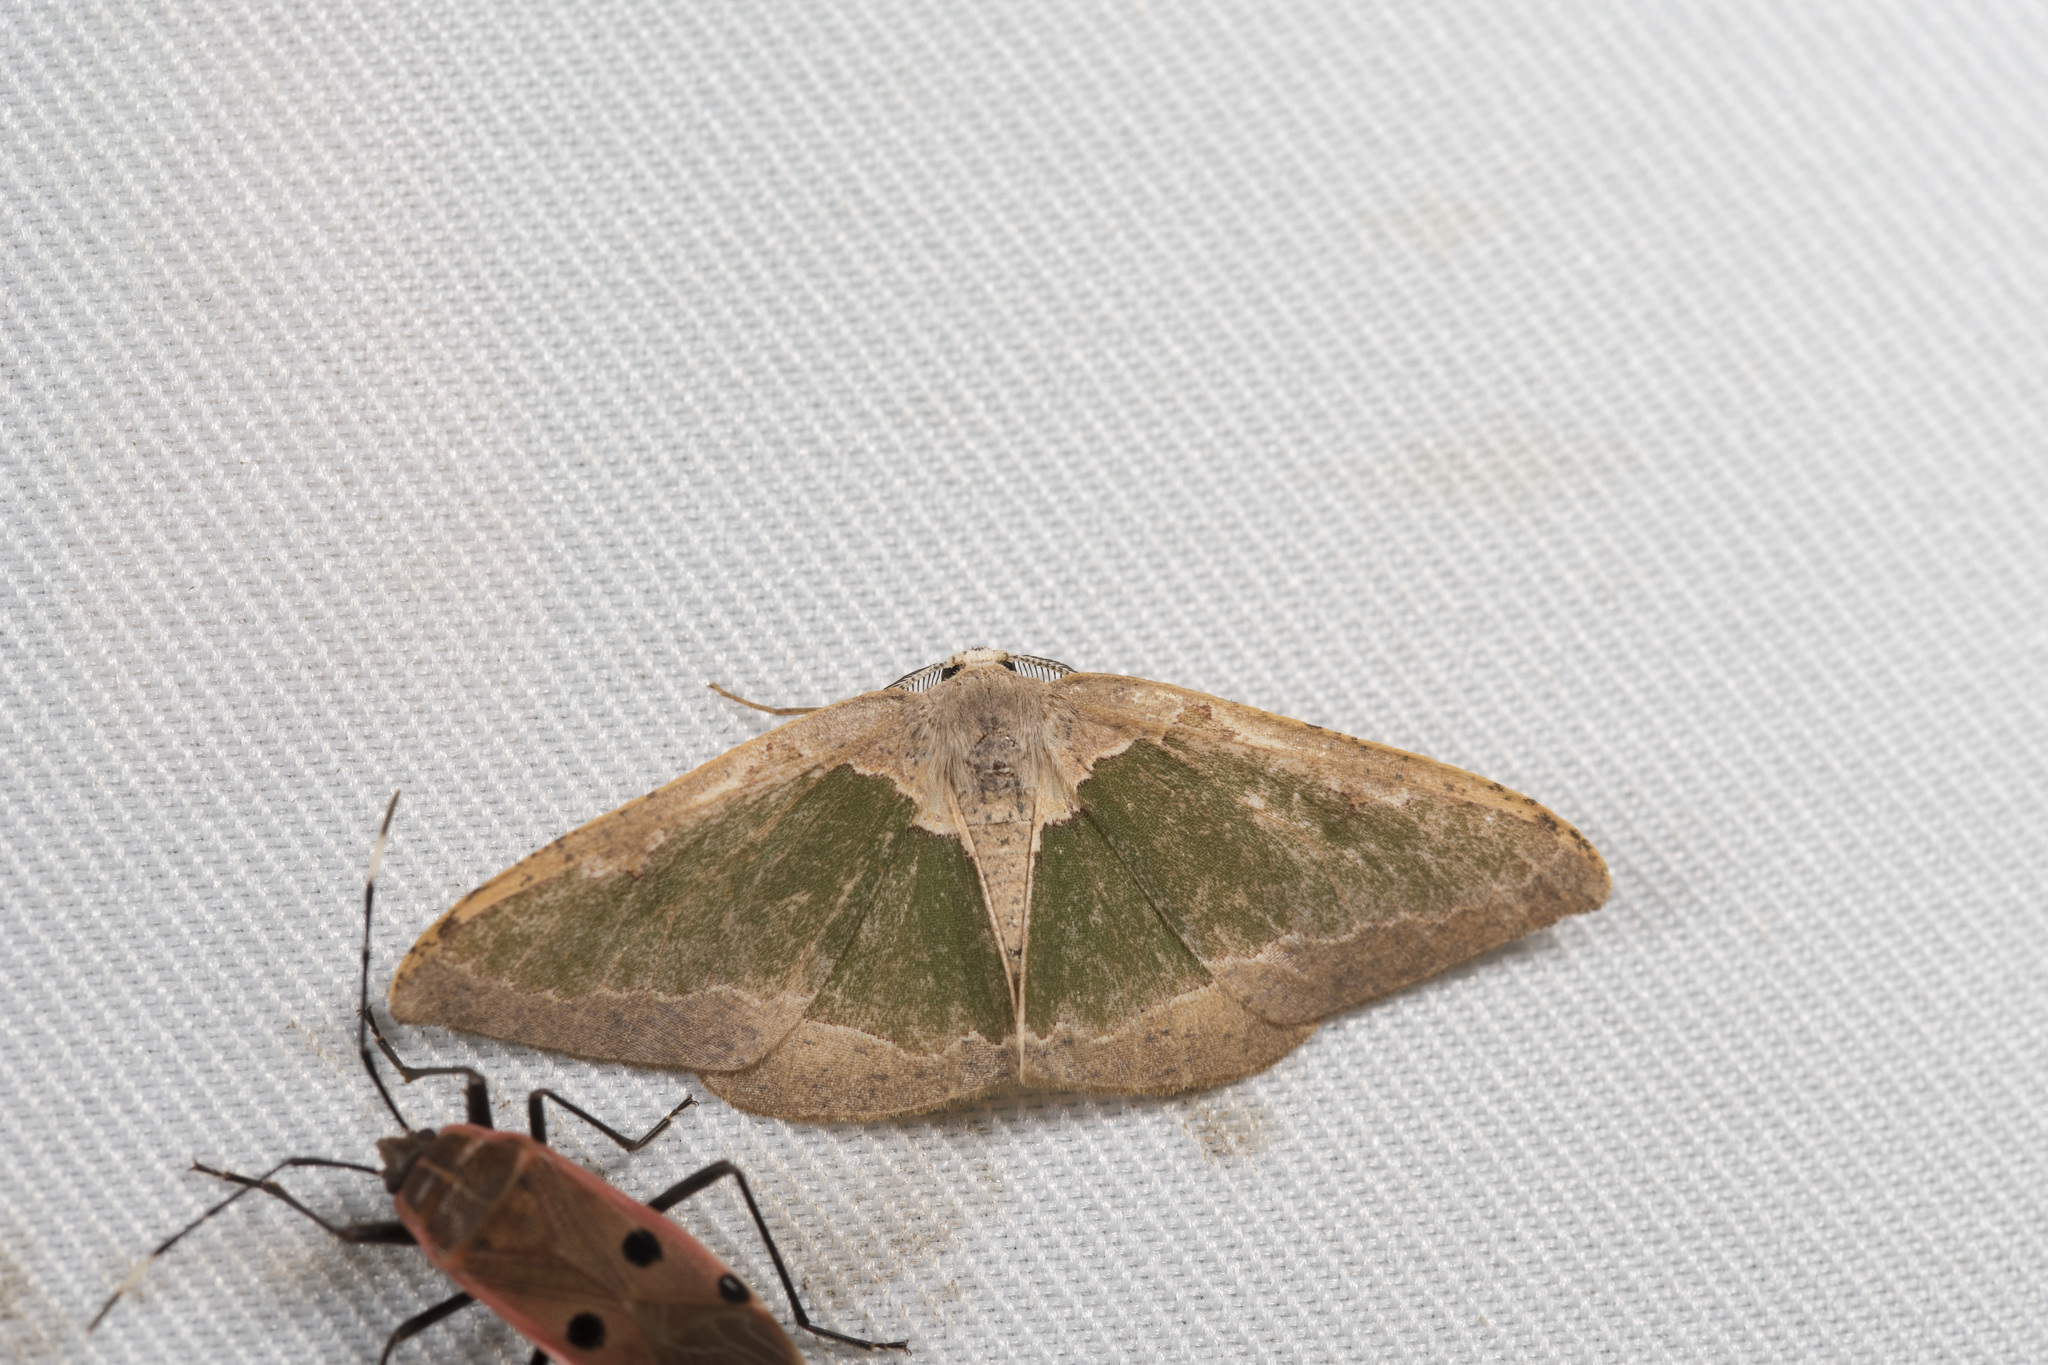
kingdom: Animalia
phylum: Arthropoda
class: Insecta
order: Lepidoptera
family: Geometridae
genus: Celenna
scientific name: Celenna festivaria
